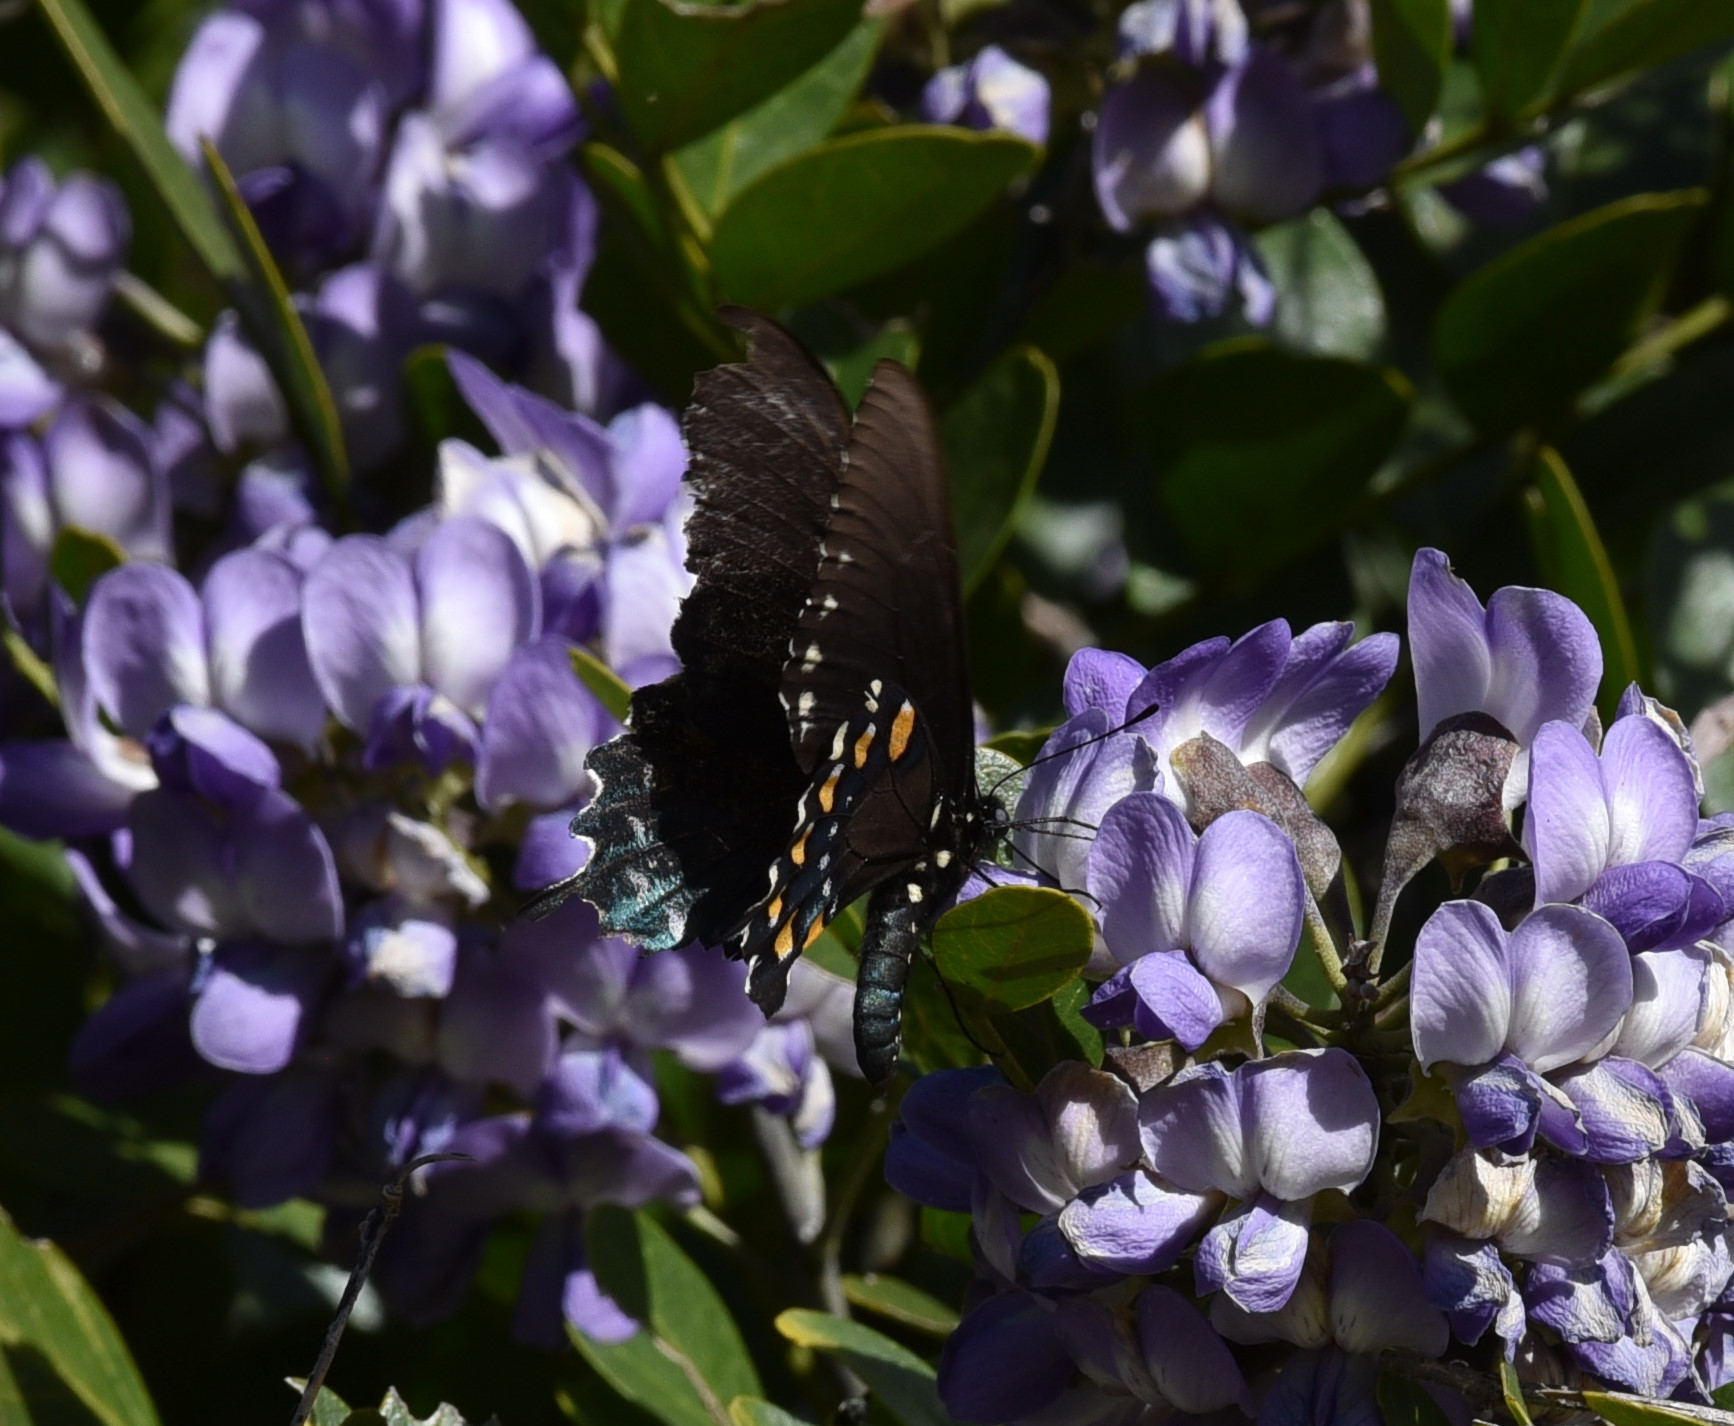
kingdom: Animalia
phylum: Arthropoda
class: Insecta
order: Lepidoptera
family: Papilionidae
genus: Battus
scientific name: Battus philenor
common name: Pipevine swallowtail
